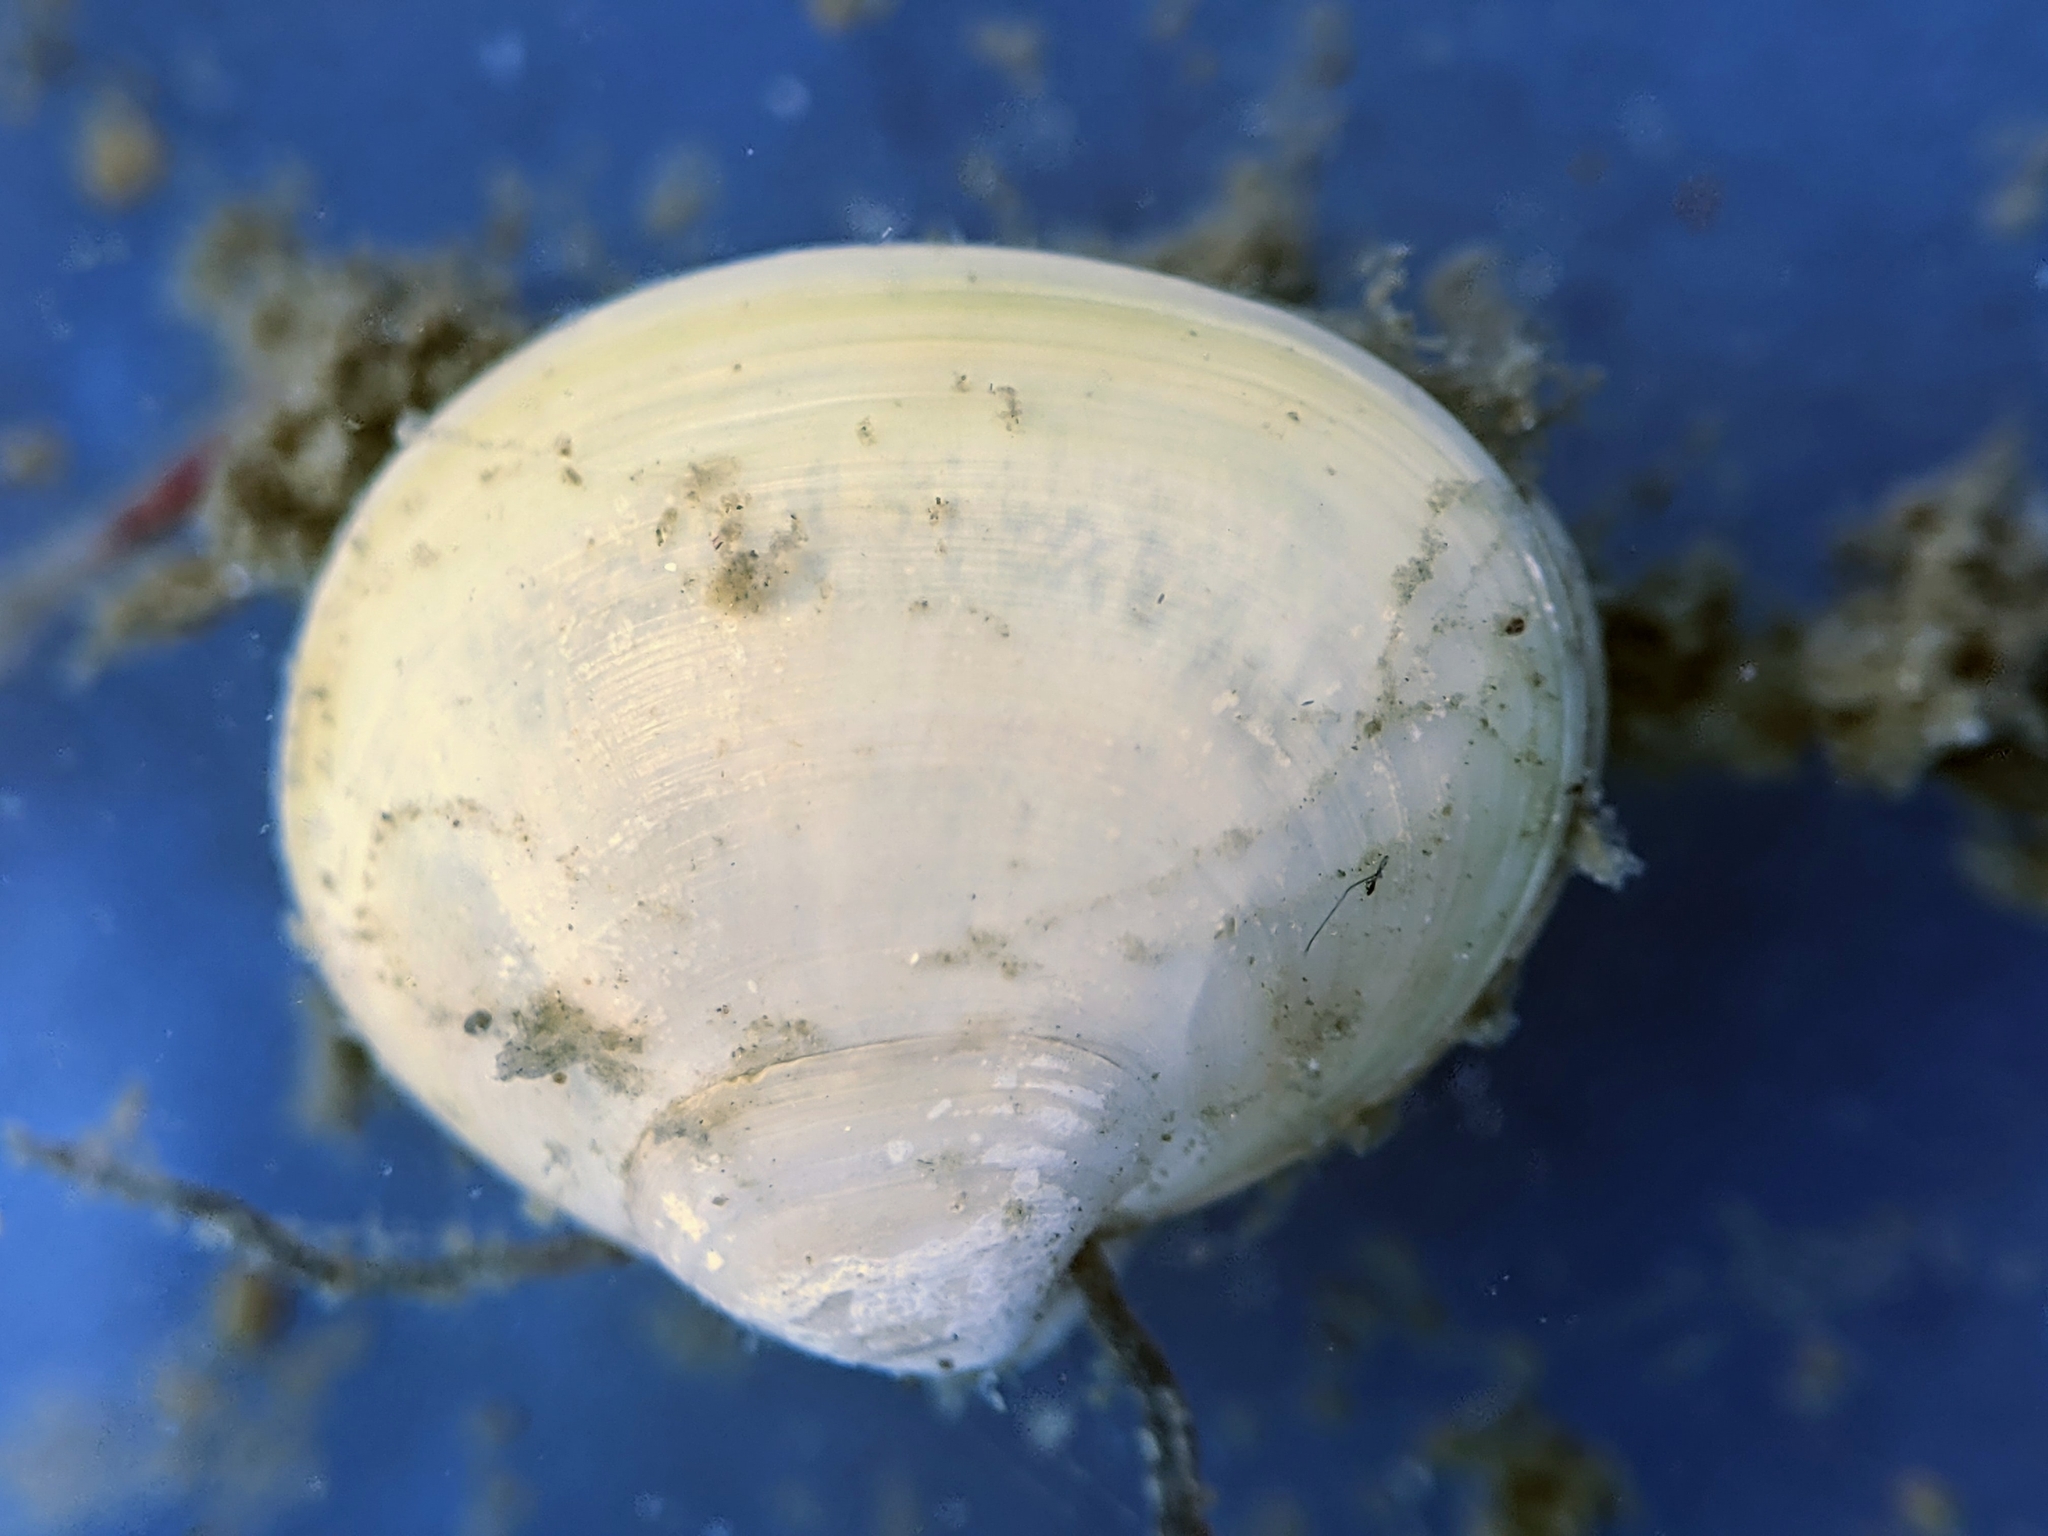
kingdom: Animalia
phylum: Mollusca
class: Bivalvia
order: Galeommatida
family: Lasaeidae
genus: Kellia
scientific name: Kellia laperousii
